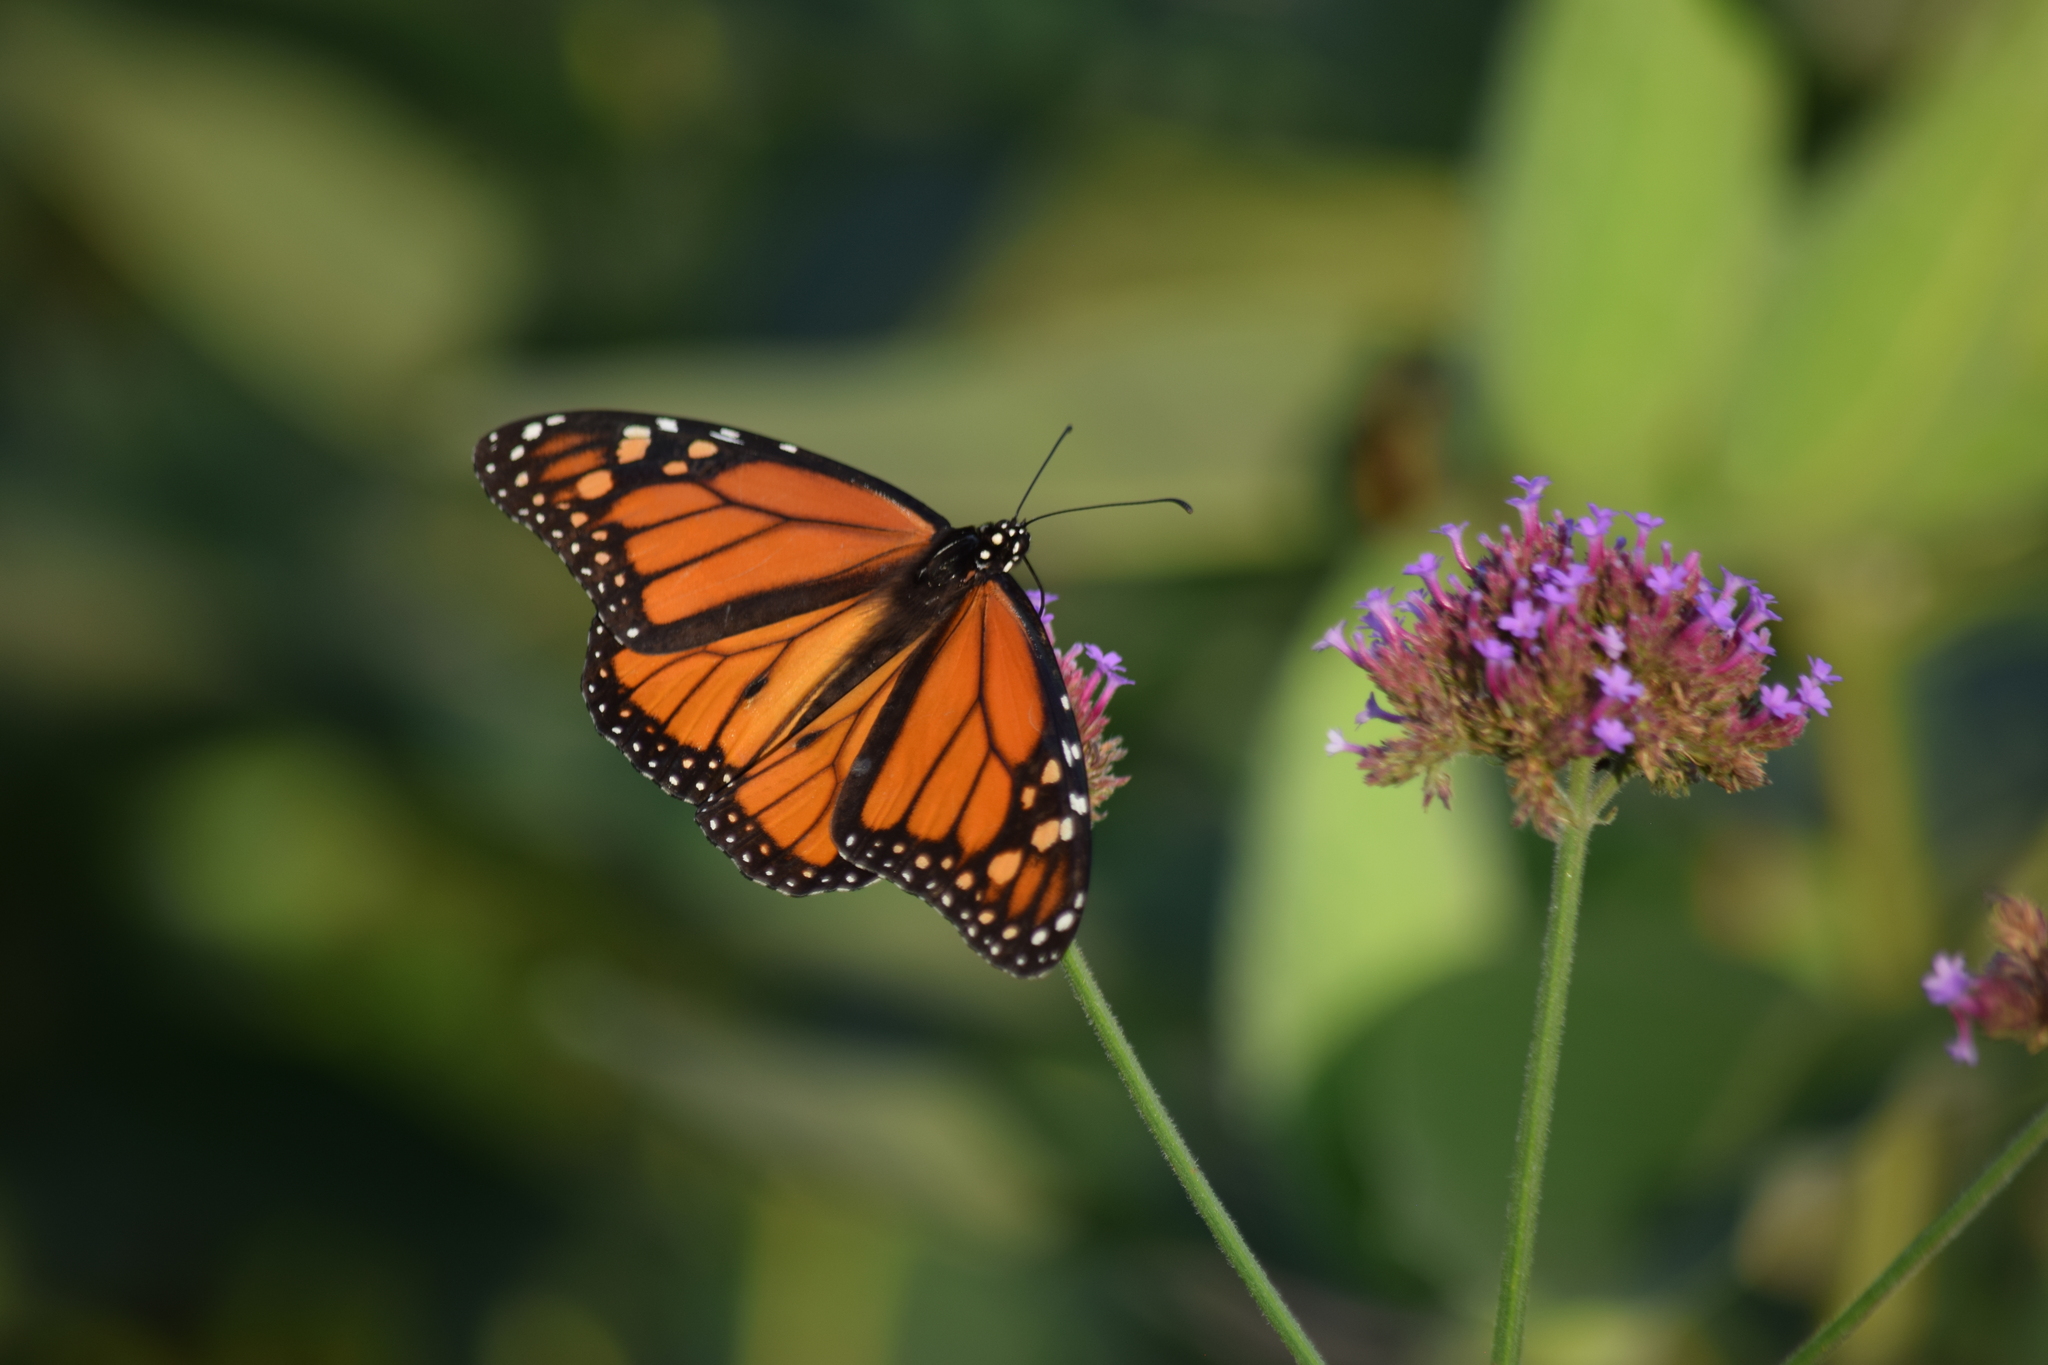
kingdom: Animalia
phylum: Arthropoda
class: Insecta
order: Lepidoptera
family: Nymphalidae
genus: Danaus
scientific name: Danaus plexippus
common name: Monarch
